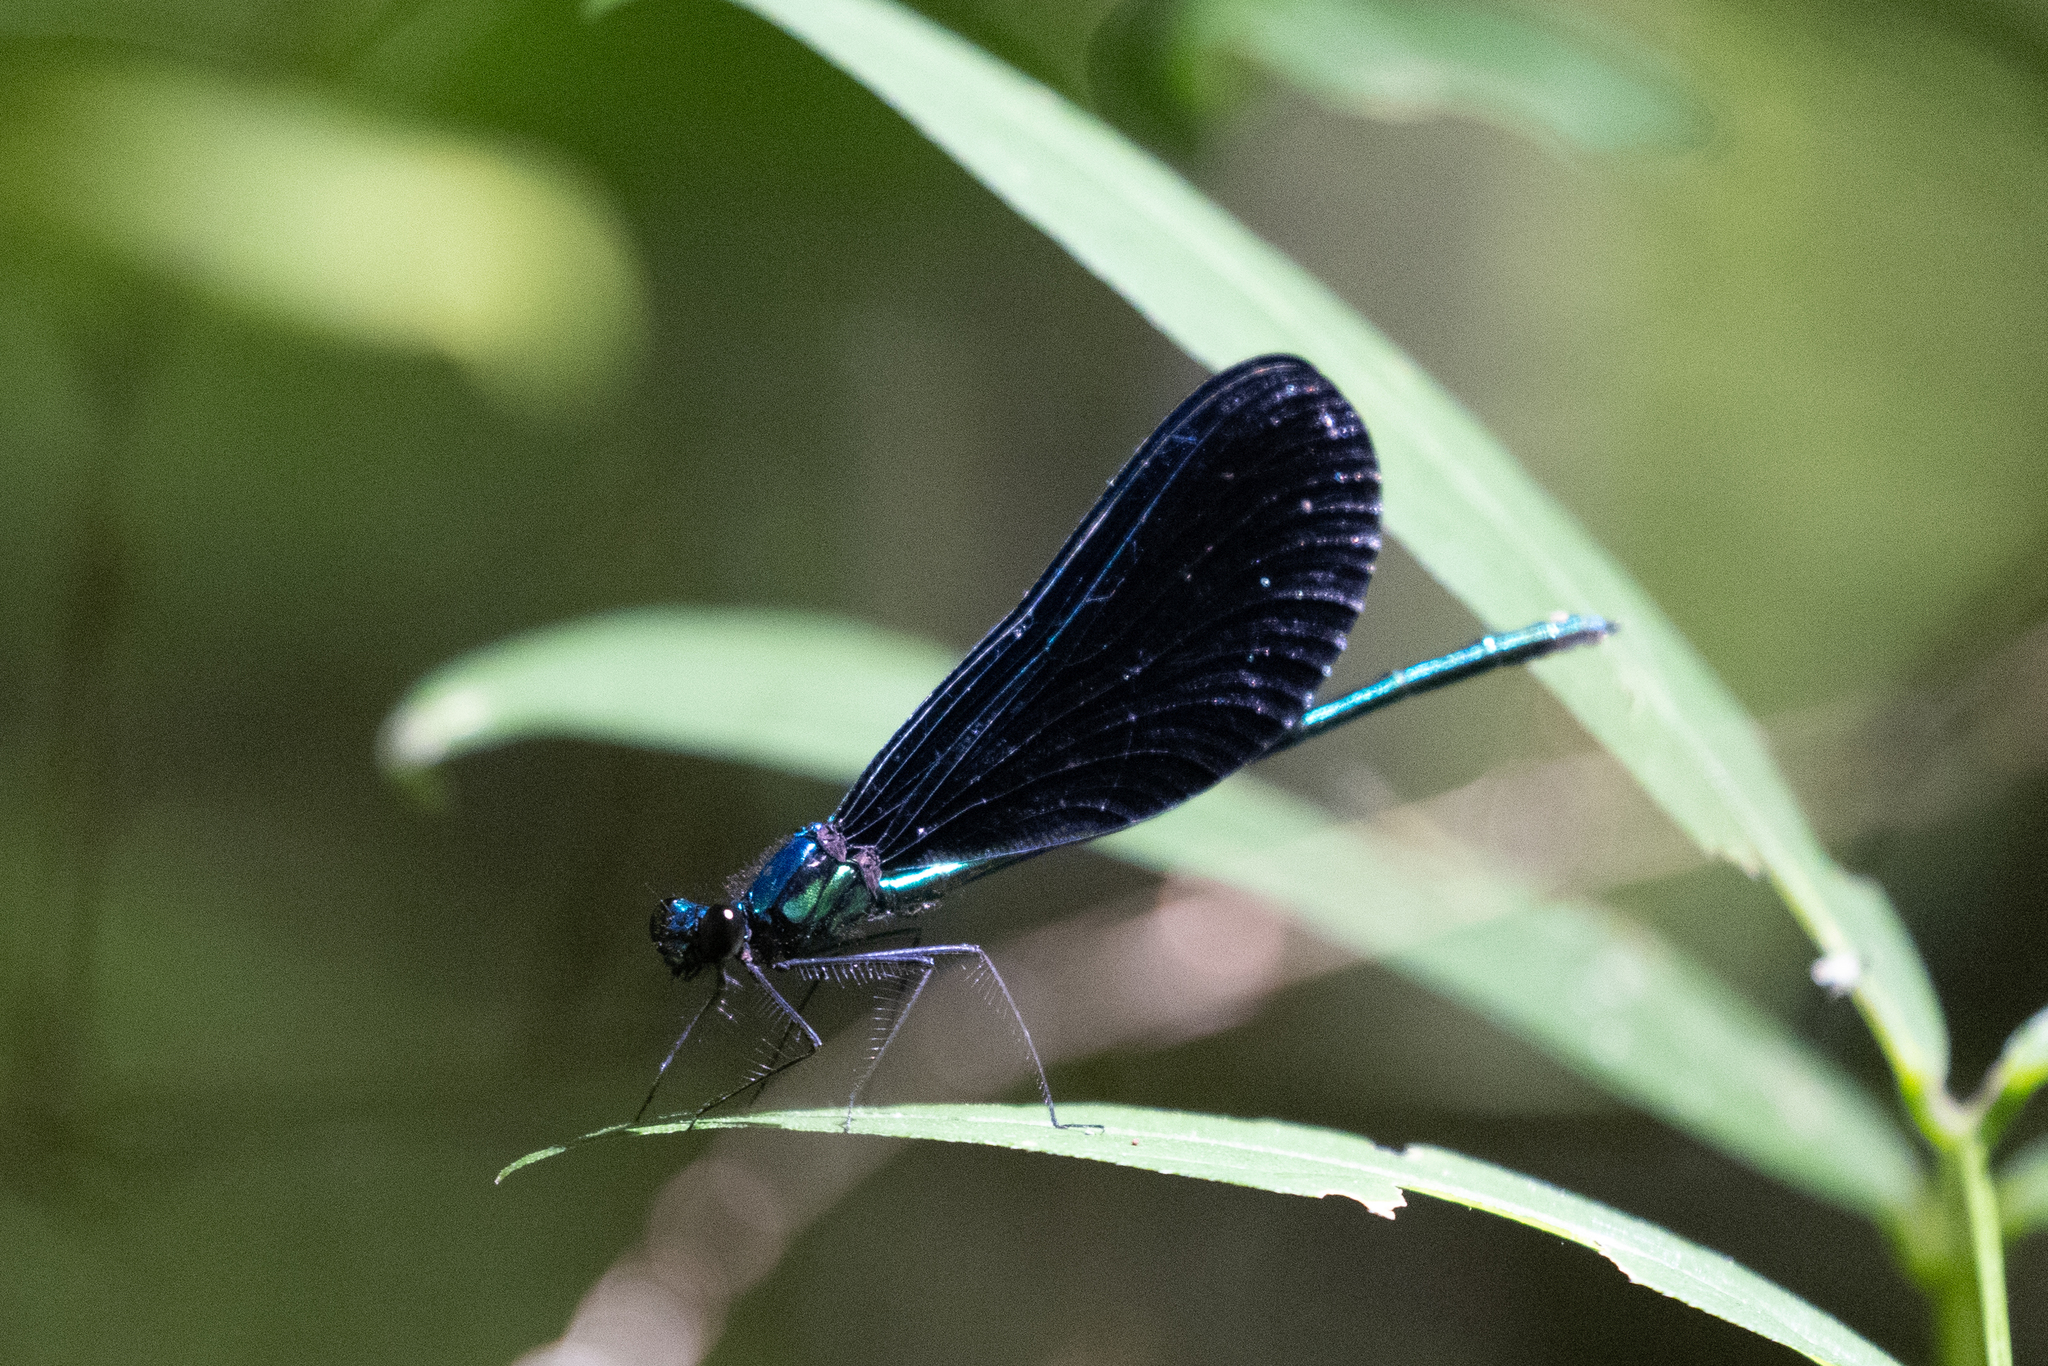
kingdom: Animalia
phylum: Arthropoda
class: Insecta
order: Odonata
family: Calopterygidae
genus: Calopteryx
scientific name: Calopteryx maculata
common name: Ebony jewelwing
